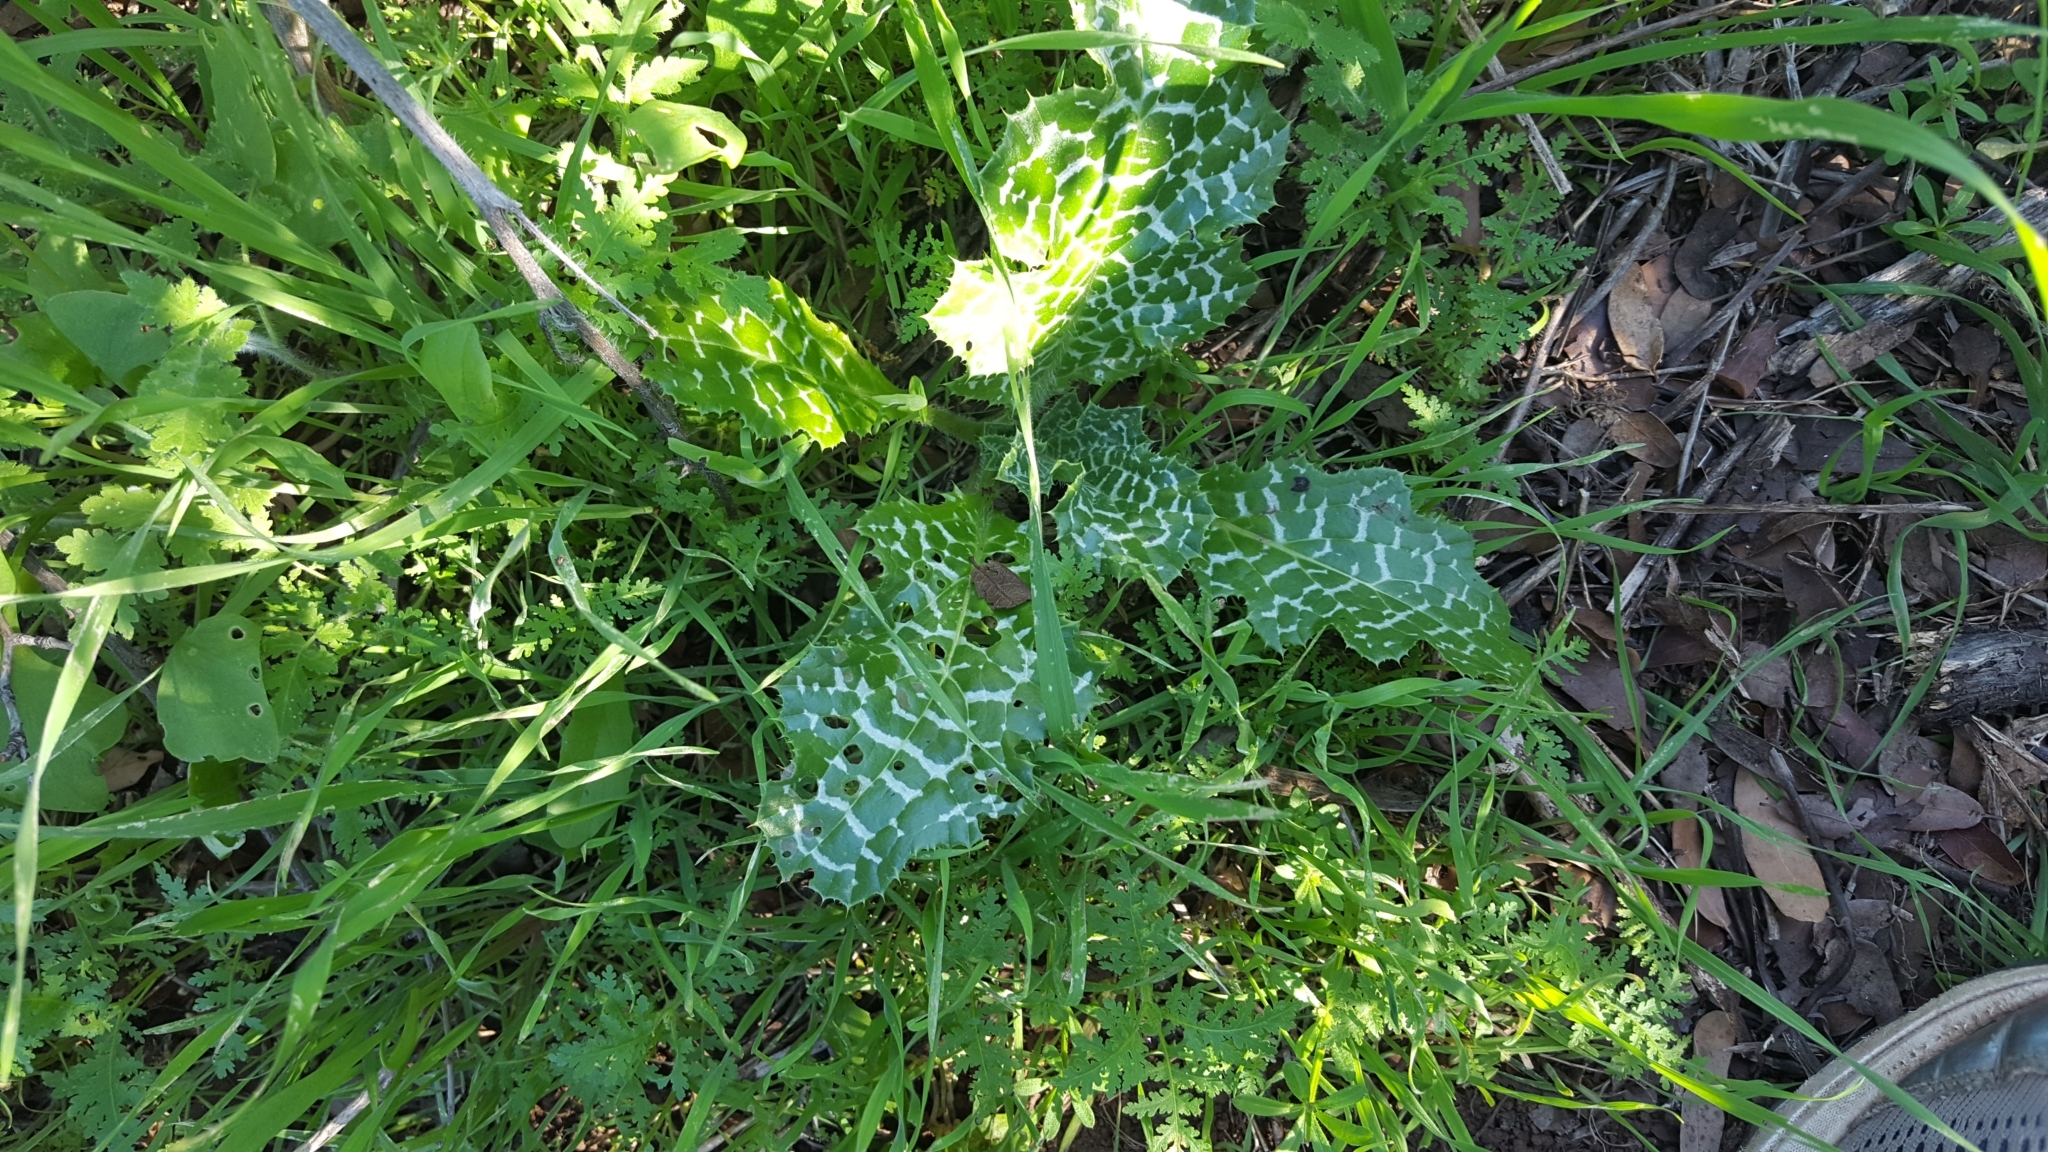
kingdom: Plantae
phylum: Tracheophyta
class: Magnoliopsida
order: Asterales
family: Asteraceae
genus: Silybum
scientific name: Silybum marianum
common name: Milk thistle
